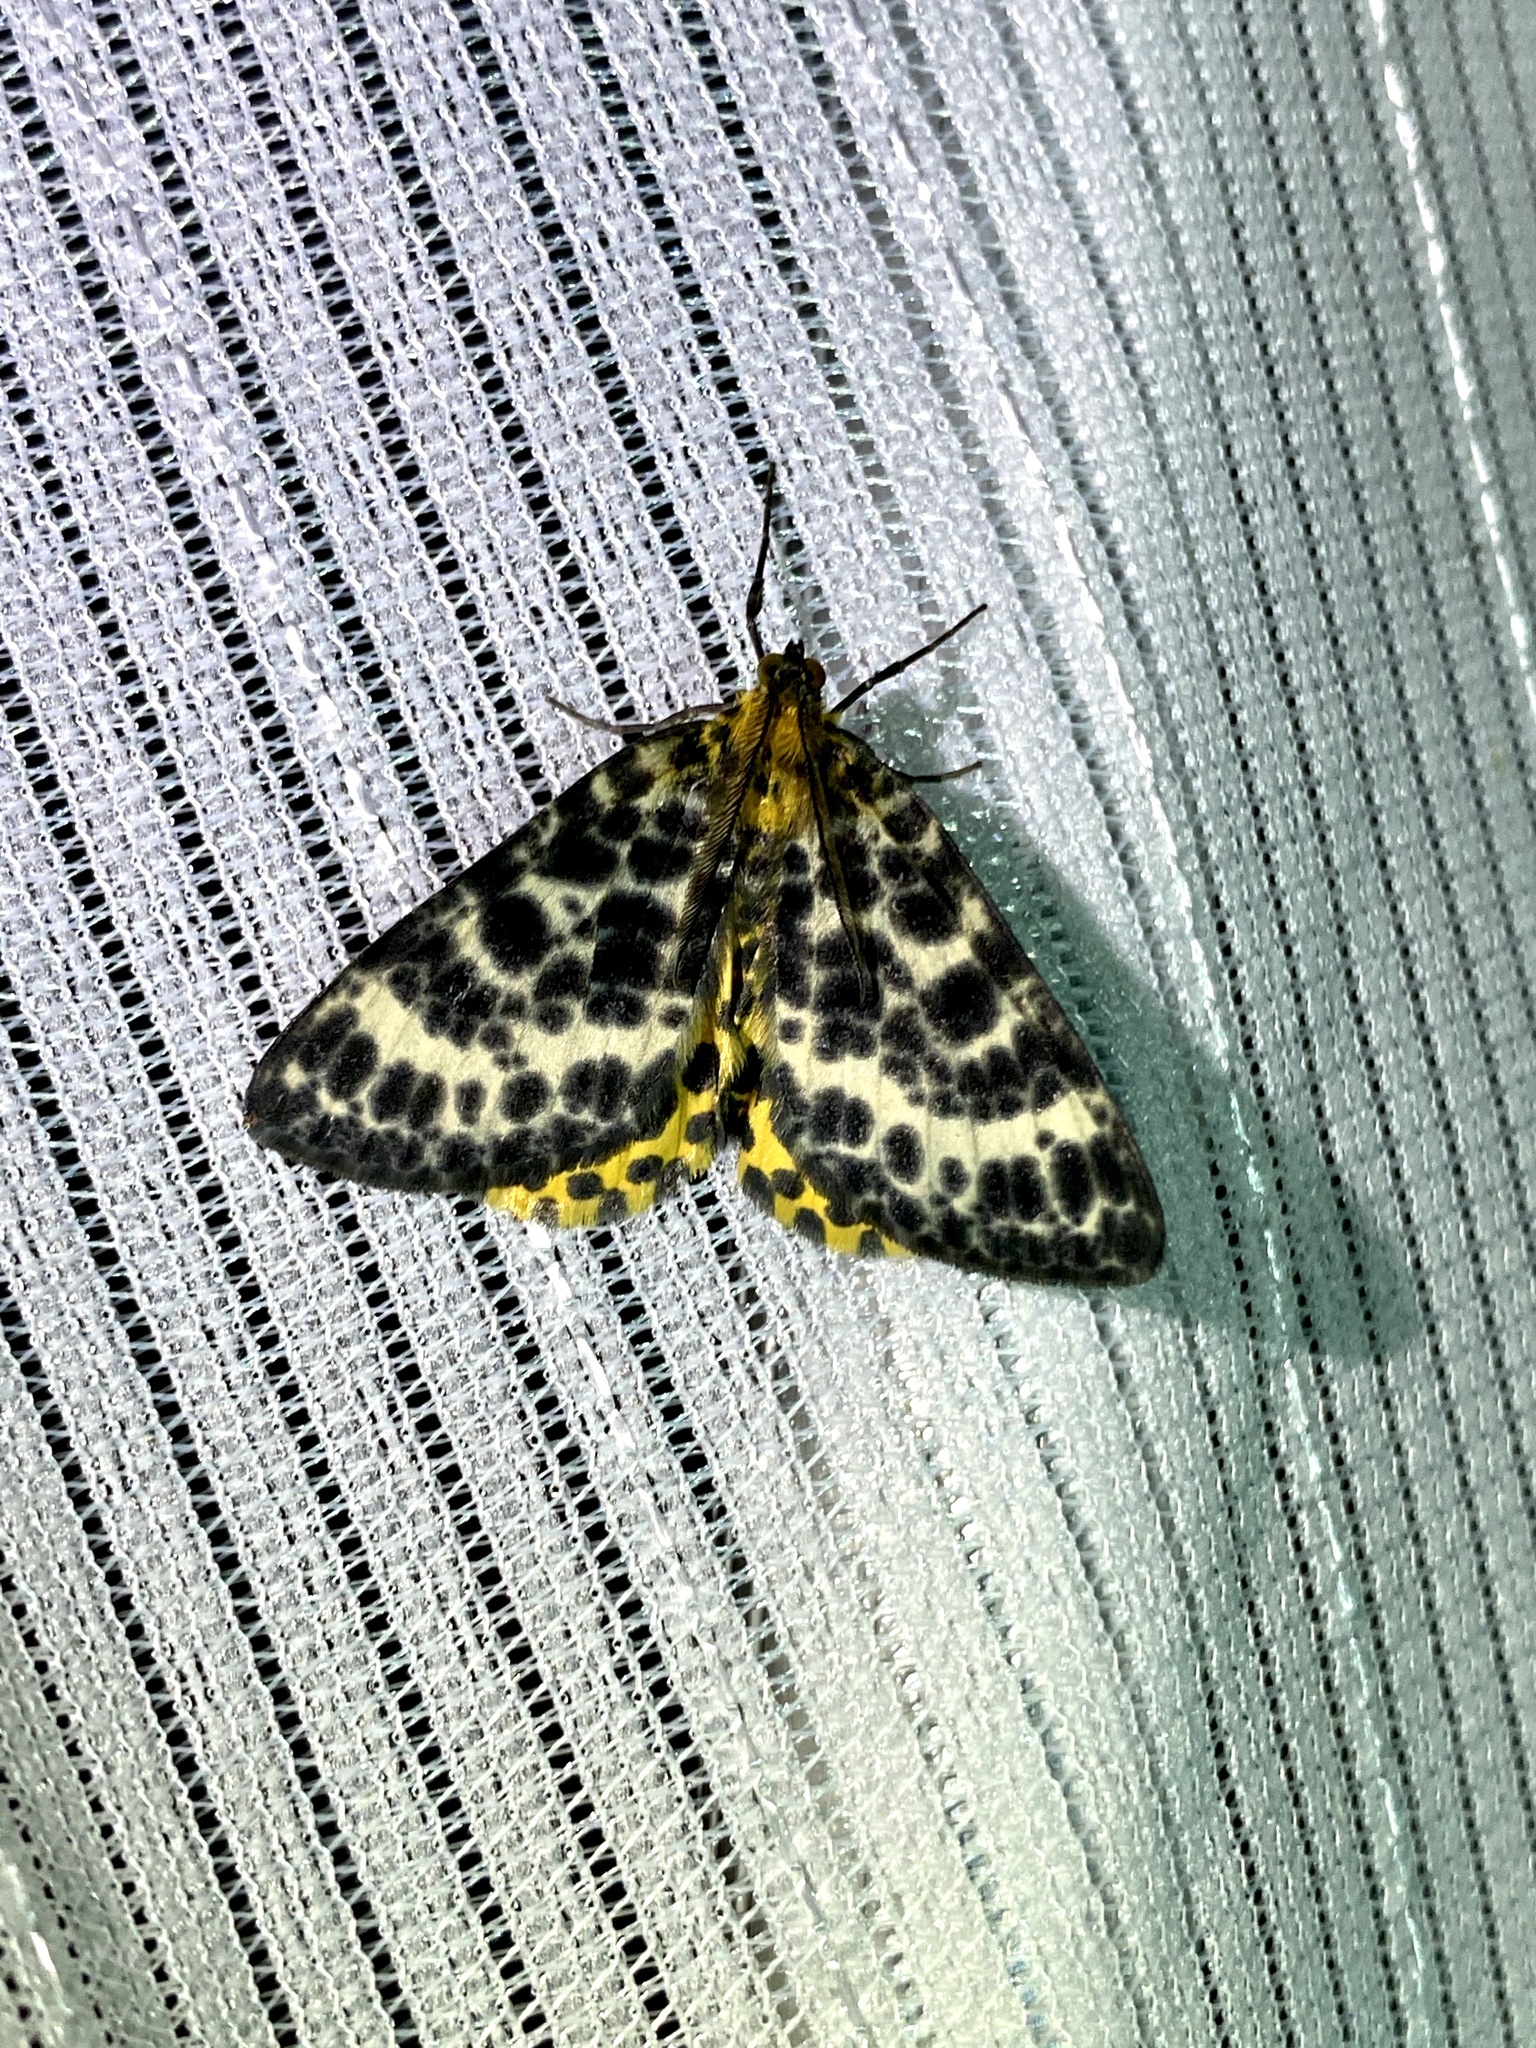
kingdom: Animalia
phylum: Arthropoda
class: Insecta
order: Lepidoptera
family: Geometridae
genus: Arichanna
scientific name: Arichanna melanaria
